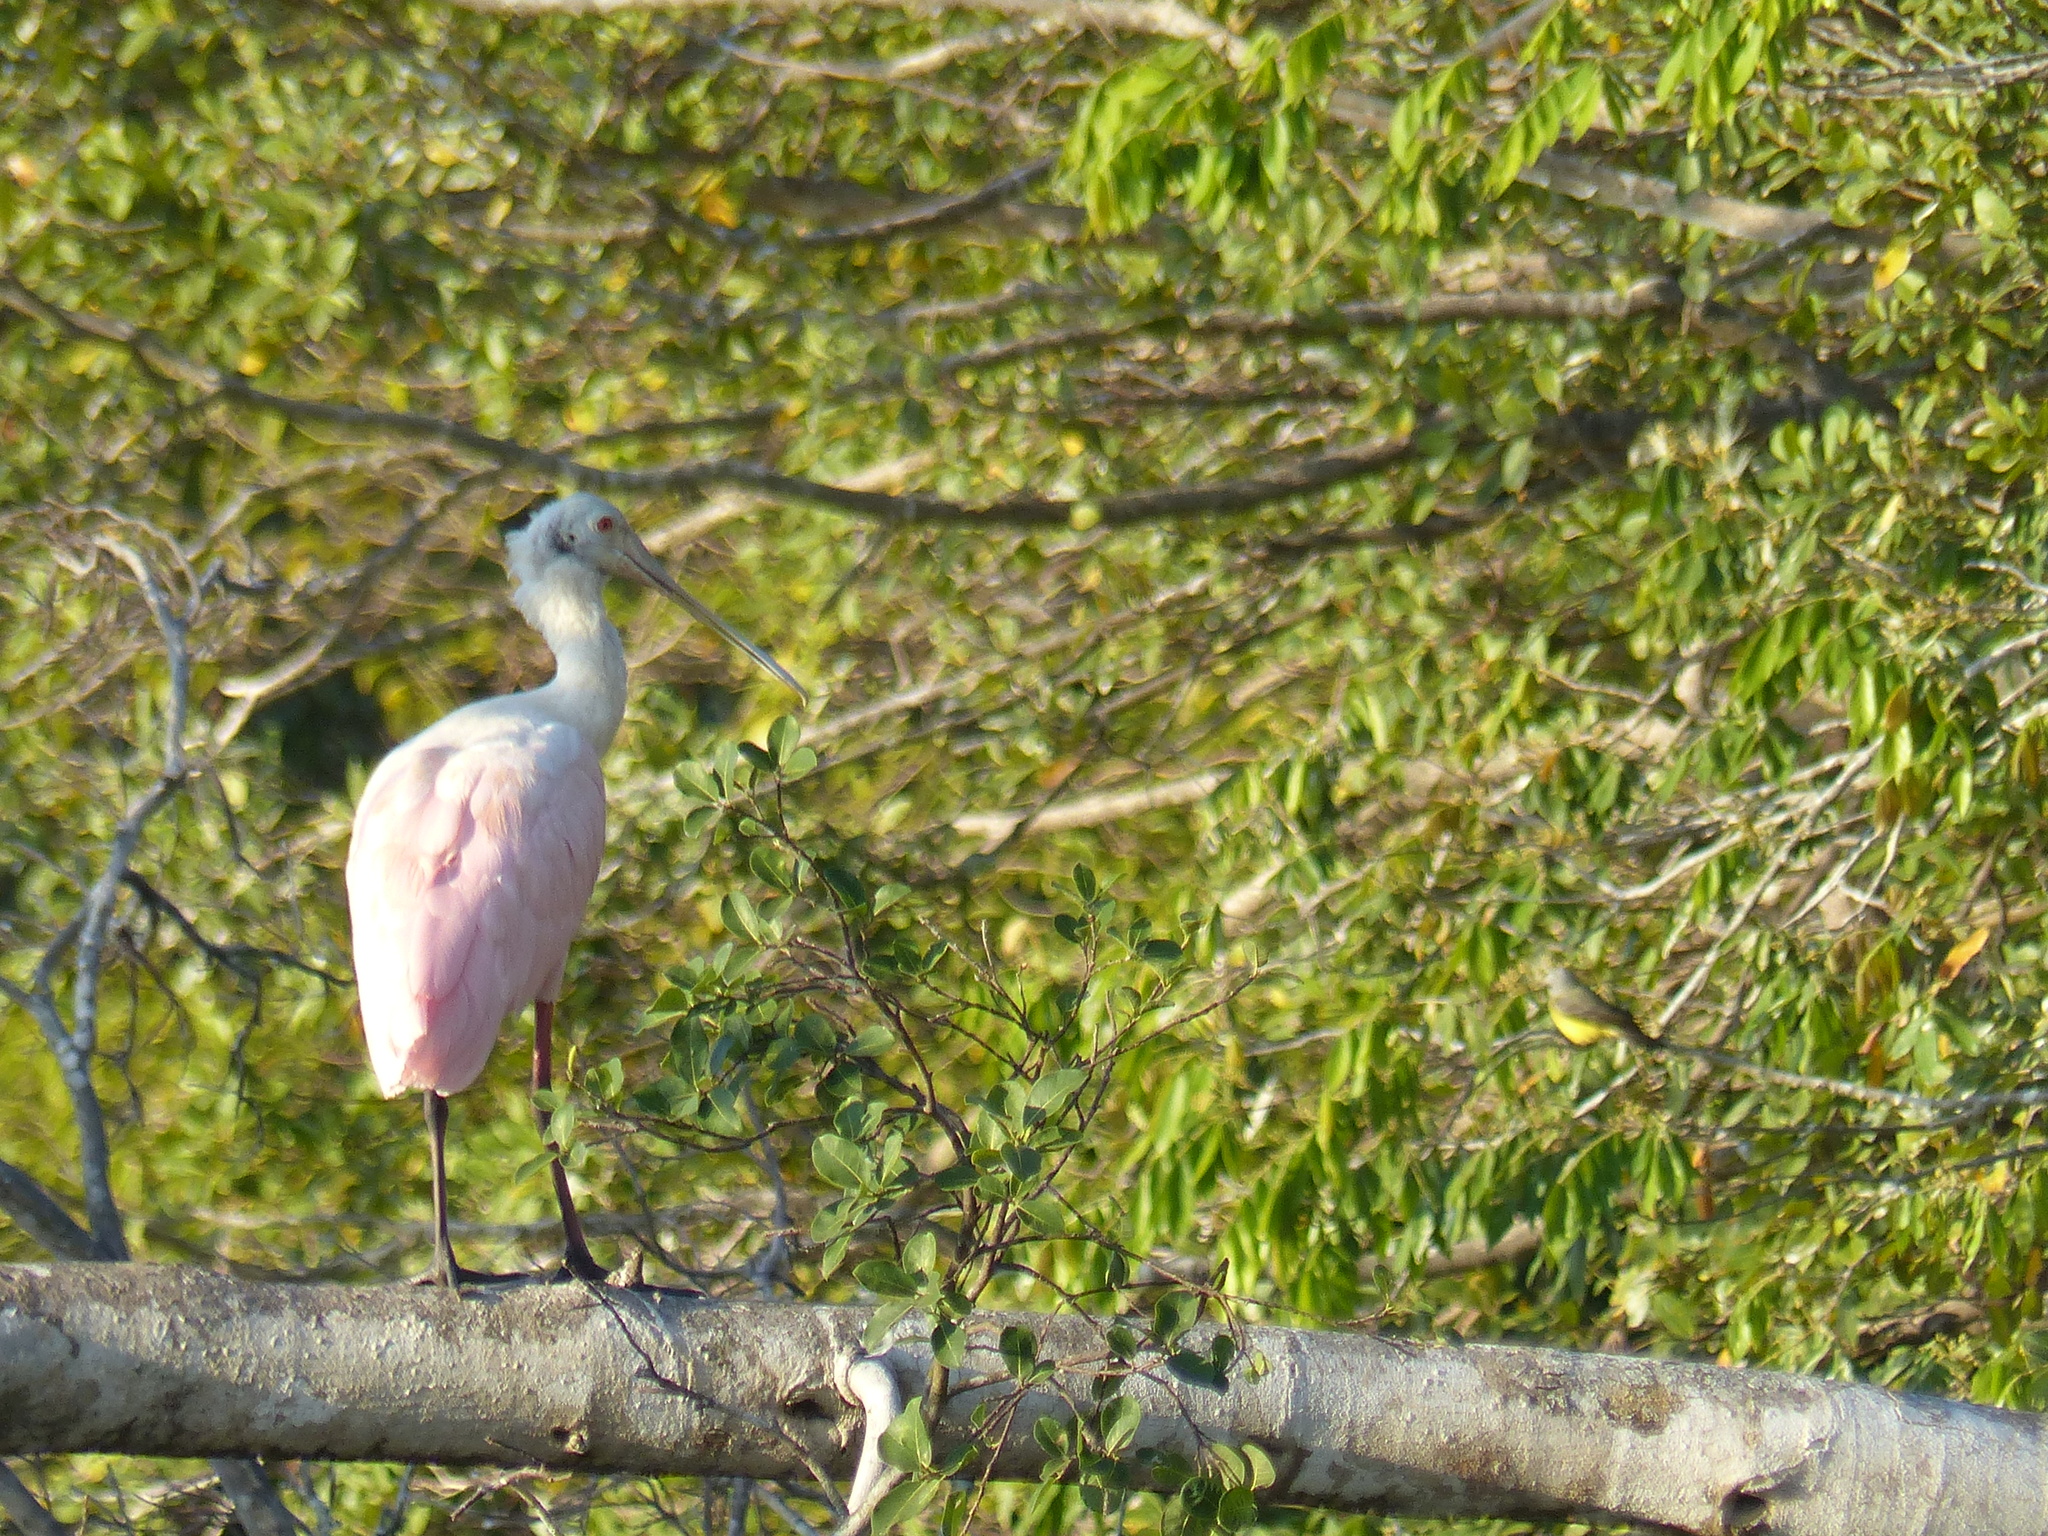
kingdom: Animalia
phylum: Chordata
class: Aves
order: Pelecaniformes
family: Threskiornithidae
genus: Platalea
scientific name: Platalea ajaja
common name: Roseate spoonbill
